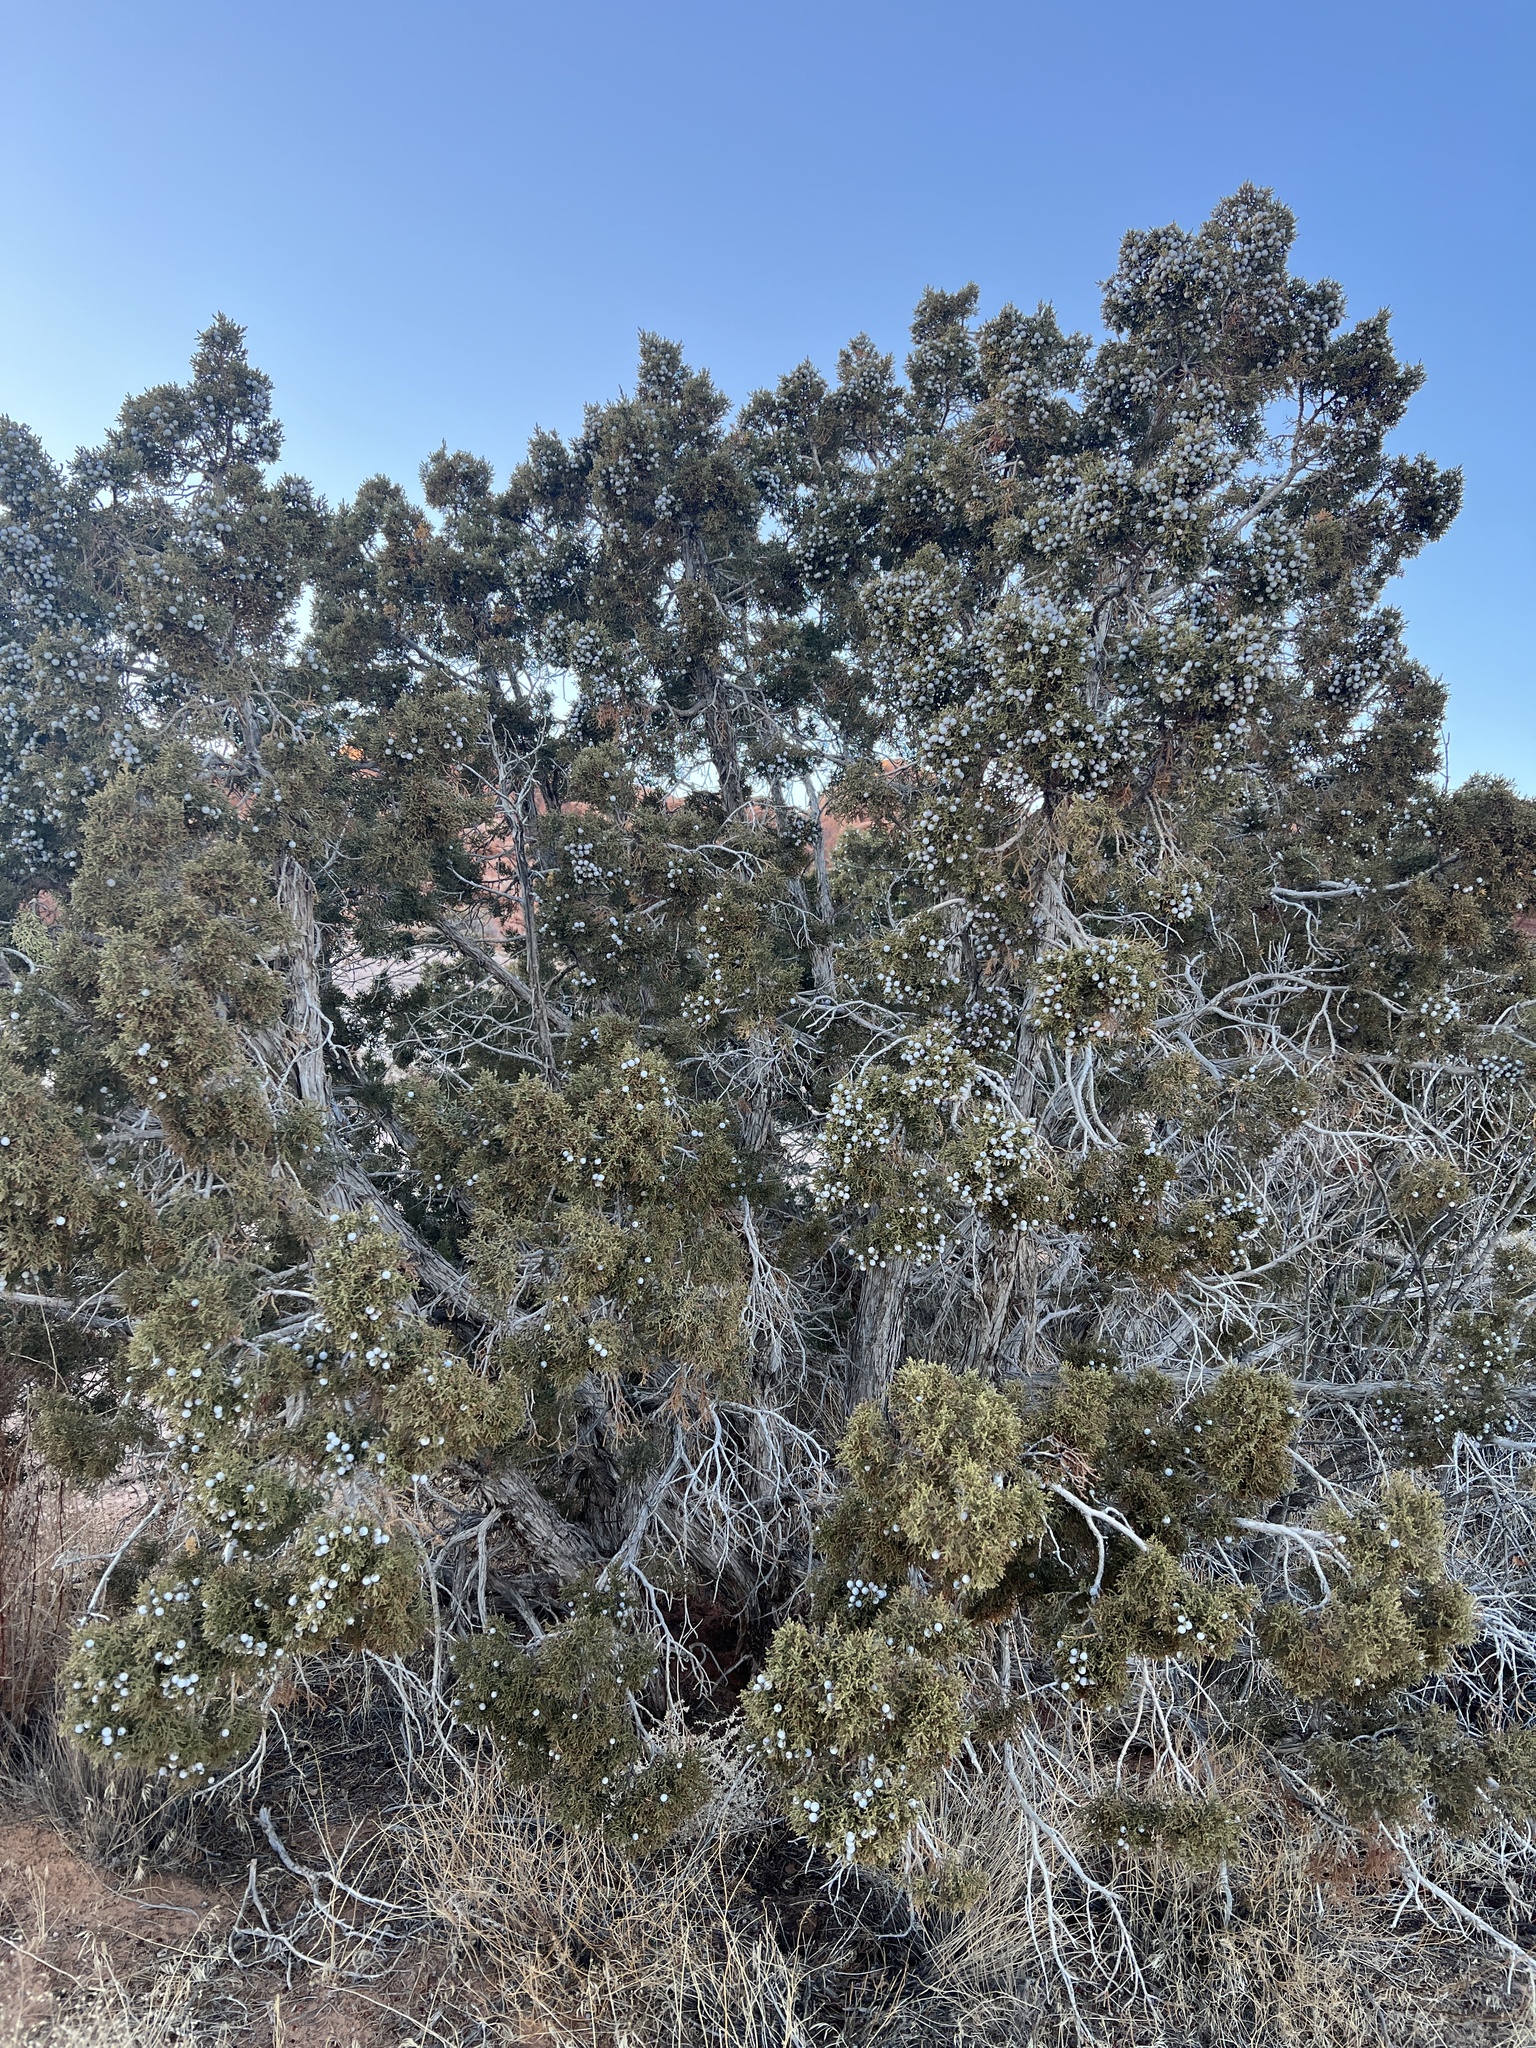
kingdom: Plantae
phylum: Tracheophyta
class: Pinopsida
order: Pinales
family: Cupressaceae
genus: Juniperus
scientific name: Juniperus osteosperma
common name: Utah juniper
